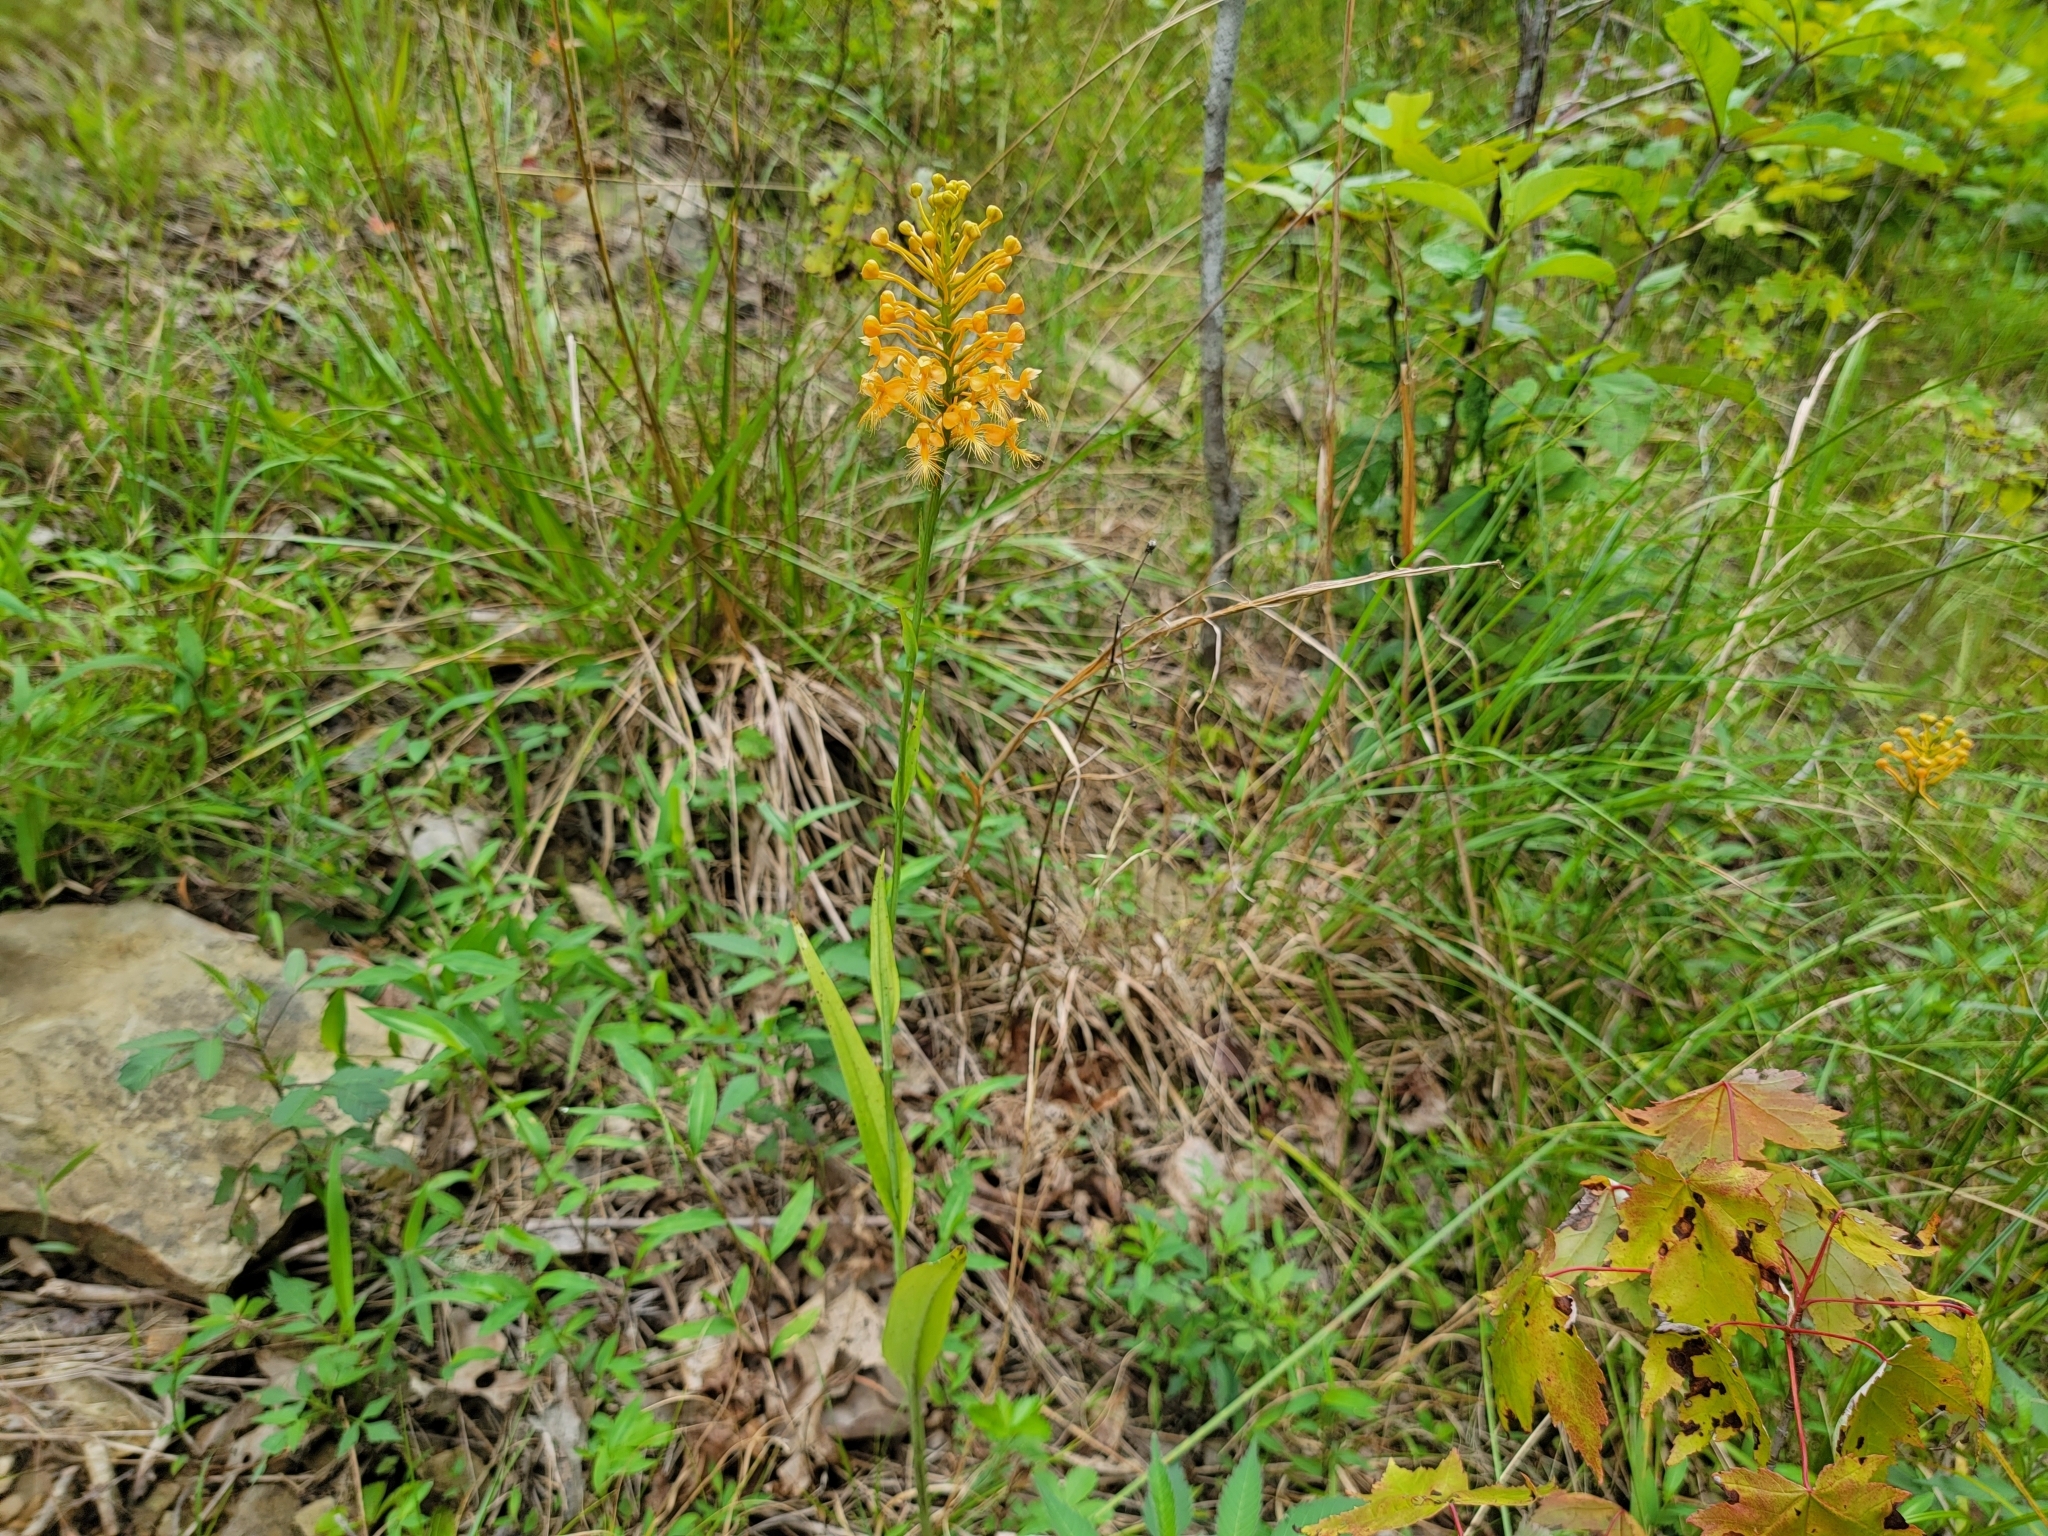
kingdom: Plantae
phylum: Tracheophyta
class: Liliopsida
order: Asparagales
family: Orchidaceae
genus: Platanthera
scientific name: Platanthera ciliaris
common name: Yellow fringed orchid
